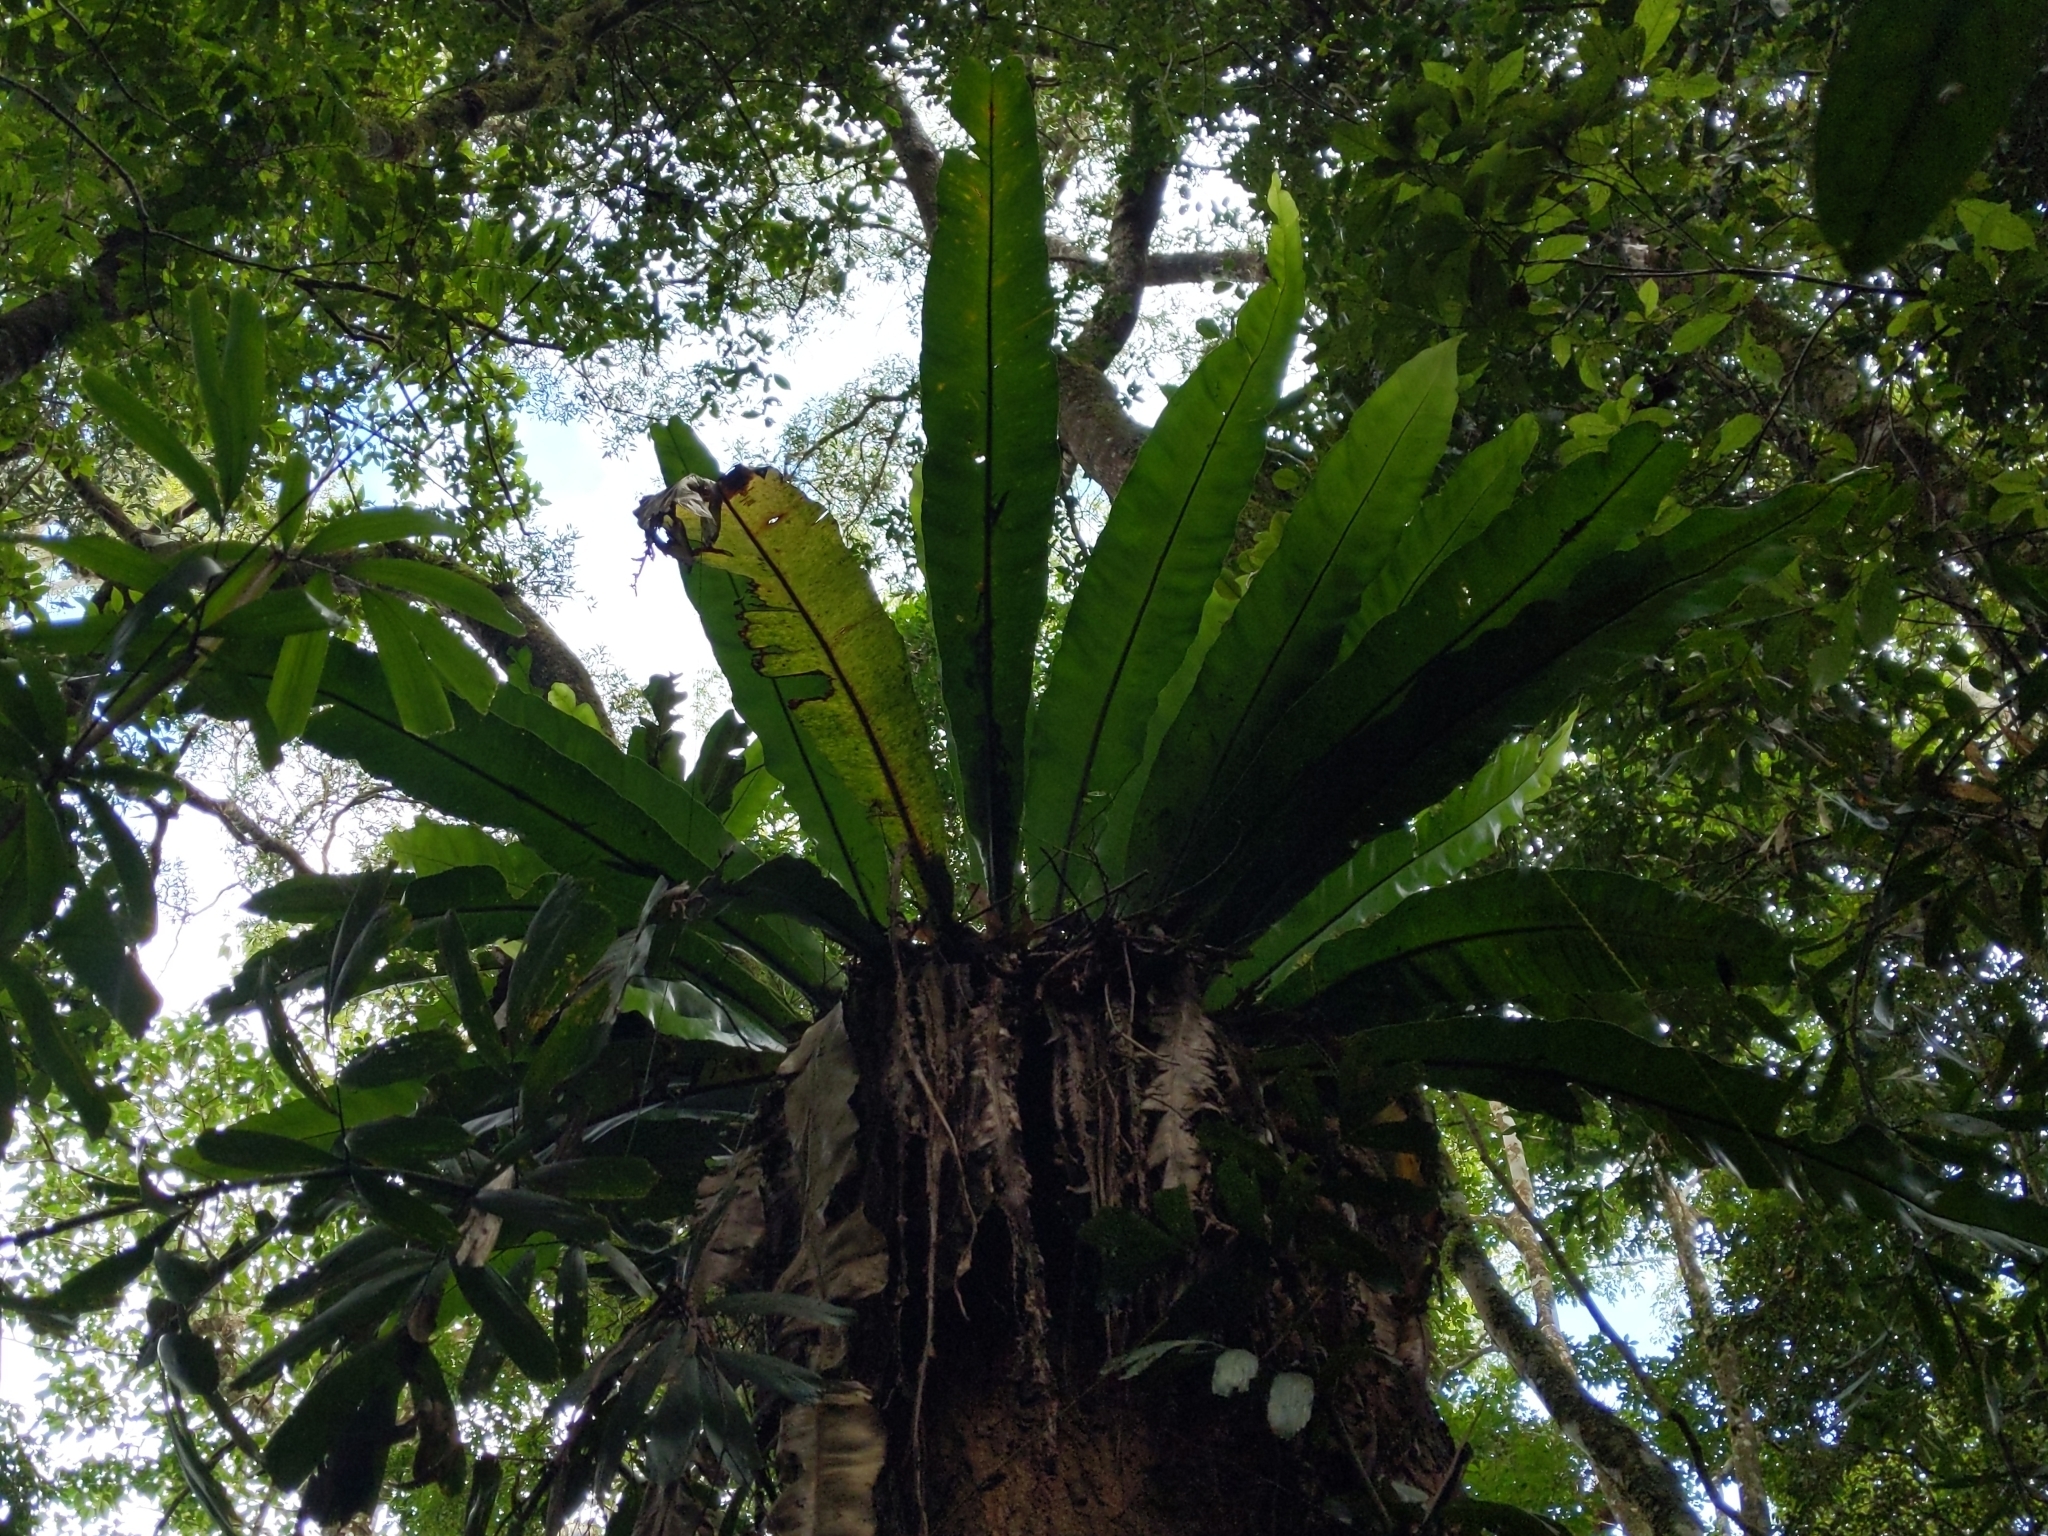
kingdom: Plantae
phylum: Tracheophyta
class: Polypodiopsida
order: Polypodiales
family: Aspleniaceae
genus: Asplenium
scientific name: Asplenium australasicum
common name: Bird's-nest fern
